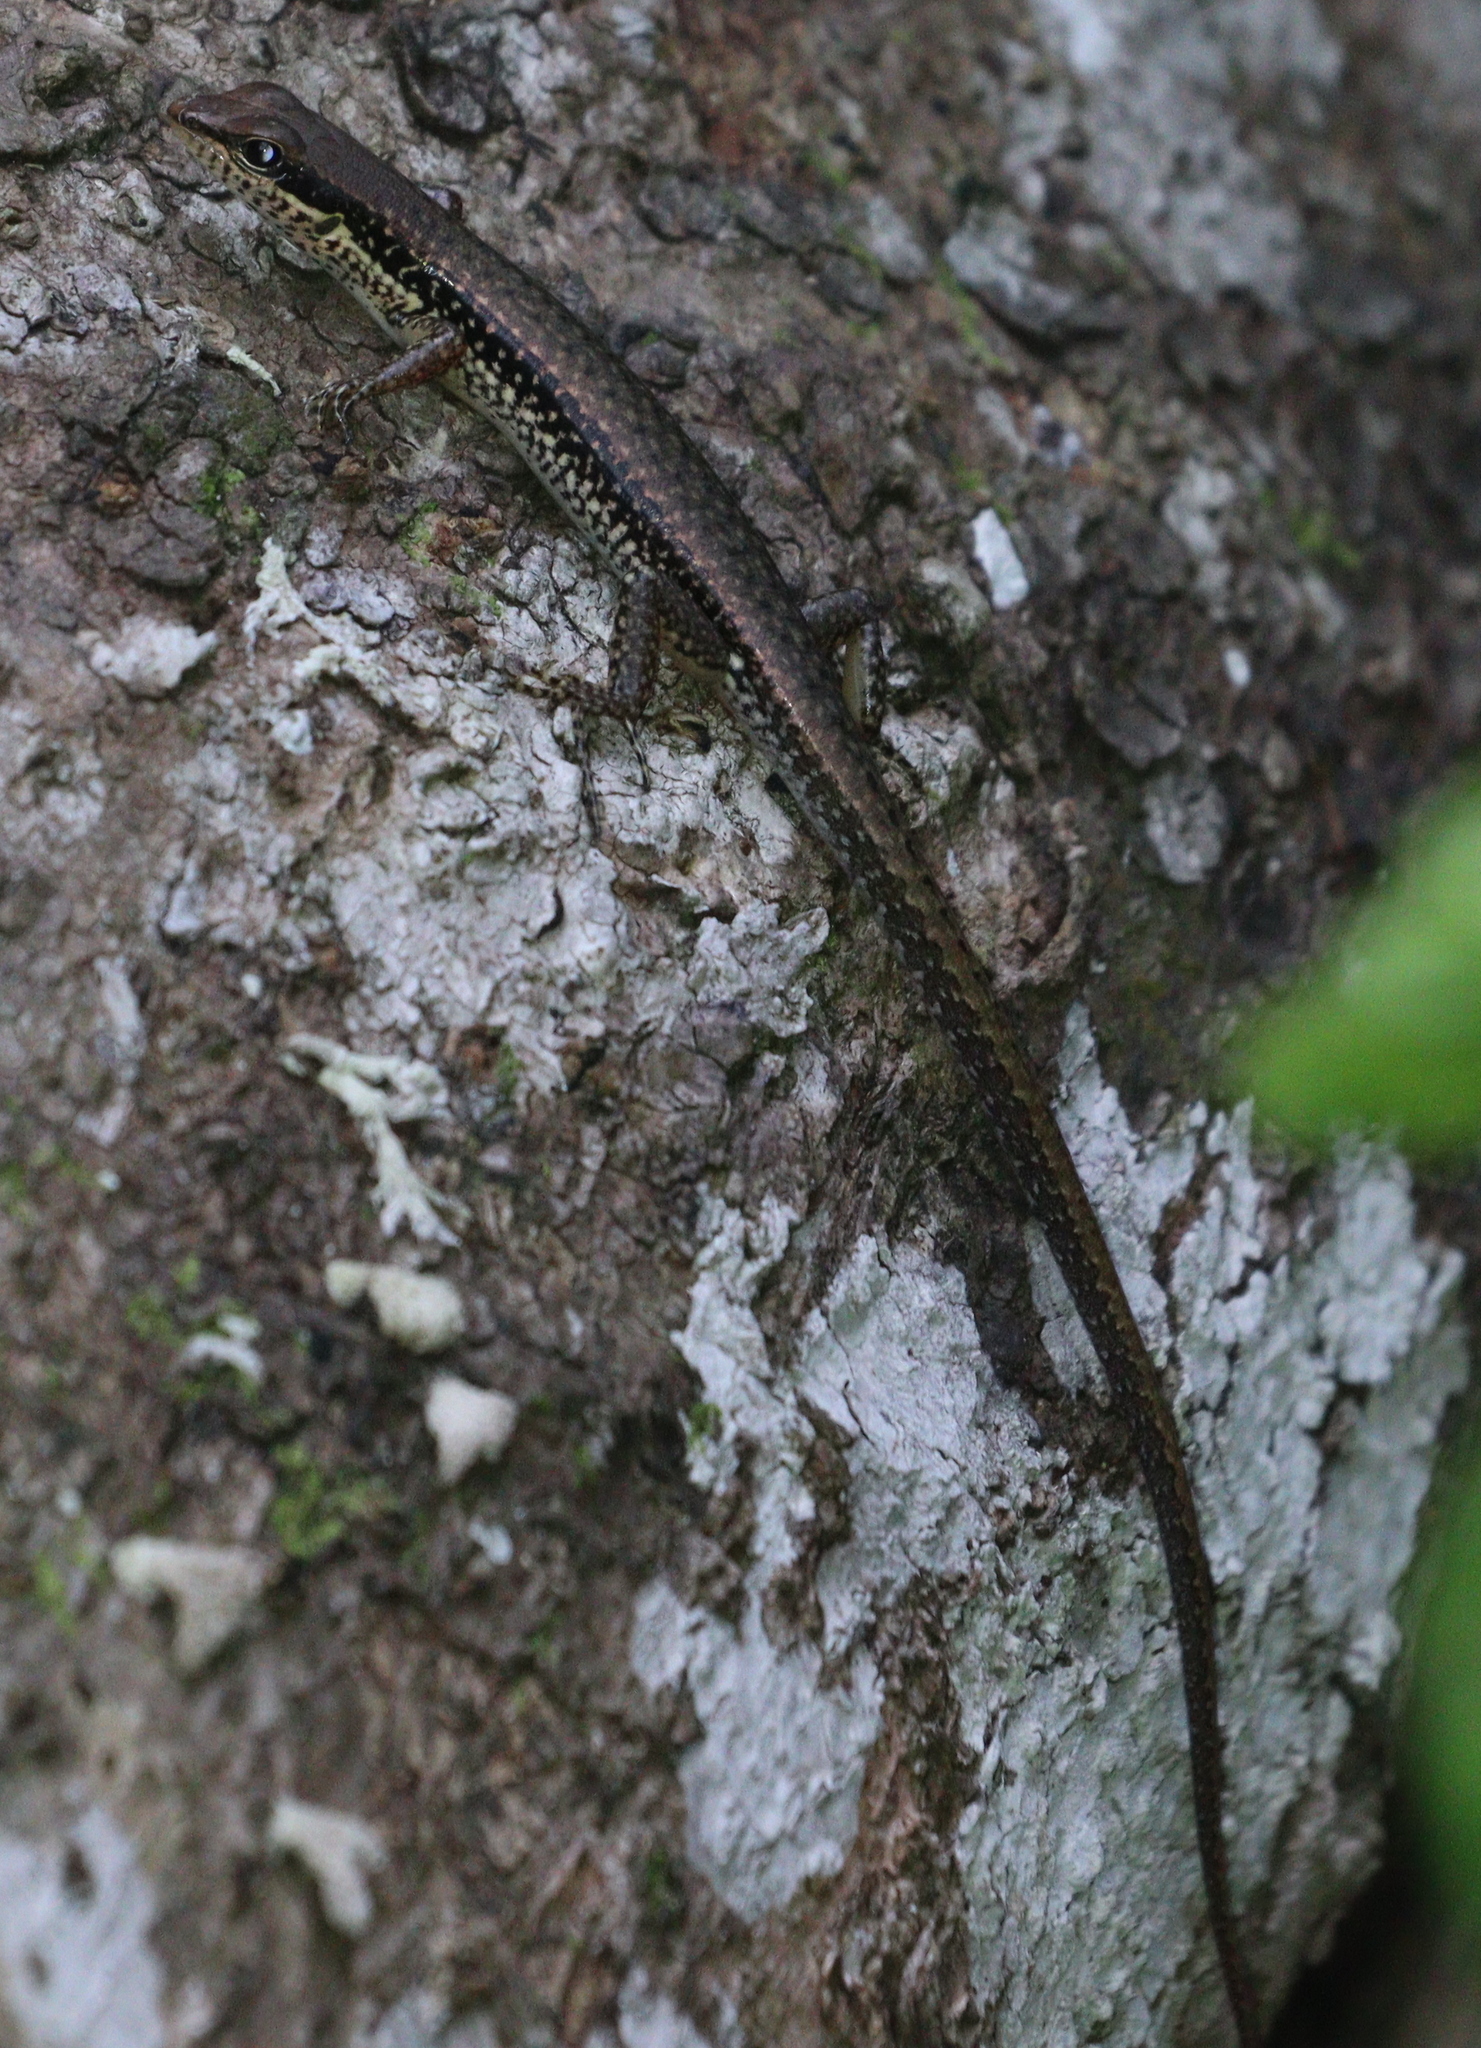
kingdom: Animalia
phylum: Chordata
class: Squamata
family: Scincidae
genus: Sphenomorphus
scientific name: Sphenomorphus maculatus
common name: Maculated forest skink
